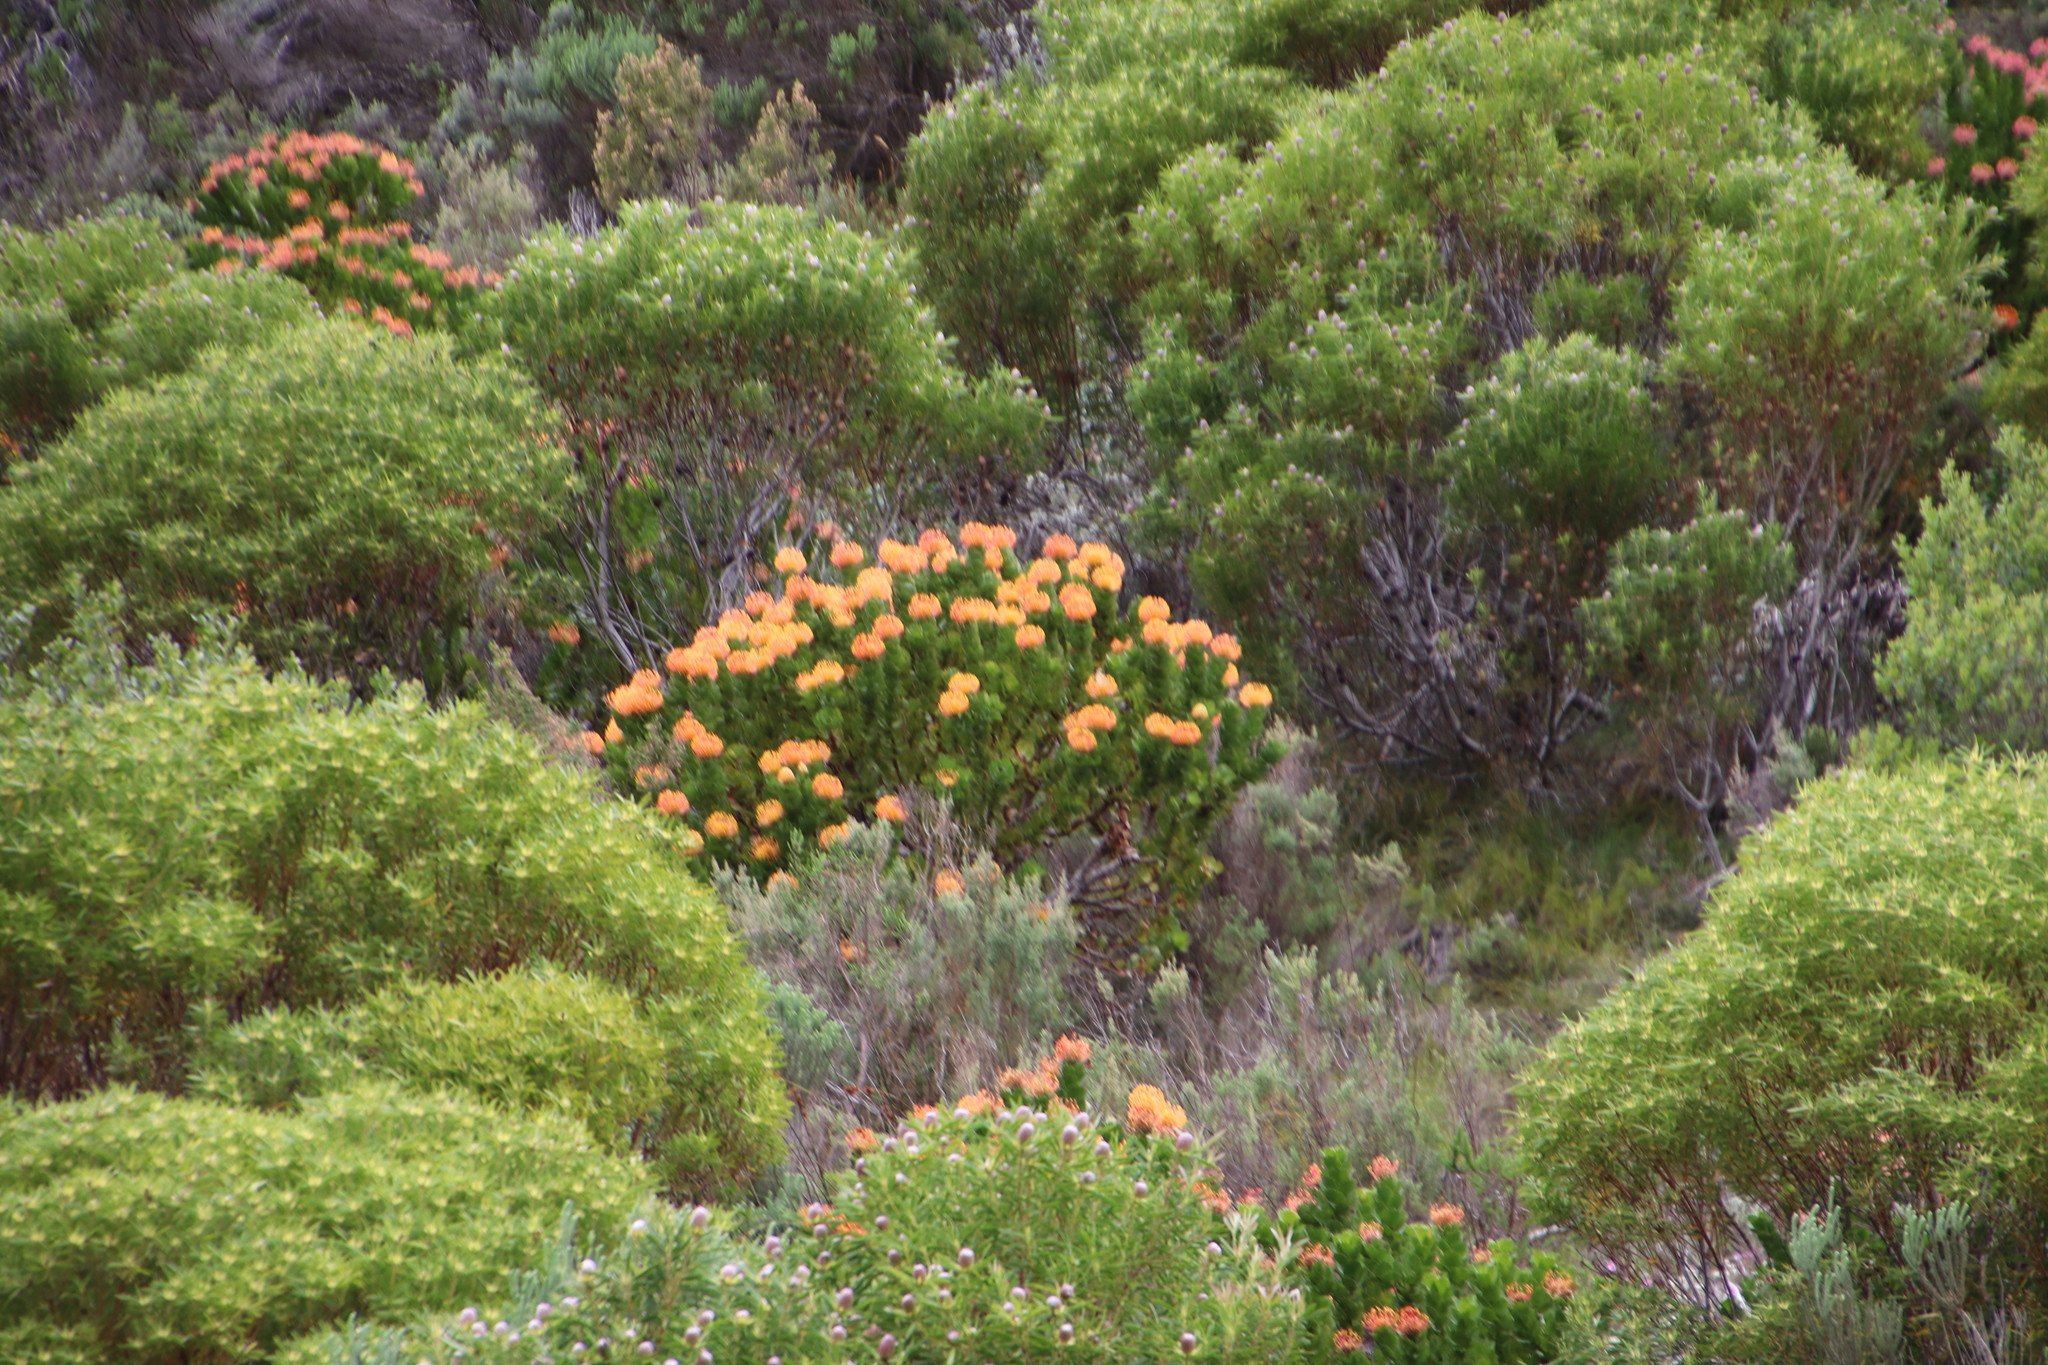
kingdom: Plantae
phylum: Tracheophyta
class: Magnoliopsida
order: Proteales
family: Proteaceae
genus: Leucospermum
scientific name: Leucospermum patersonii
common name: False tree pincushion
